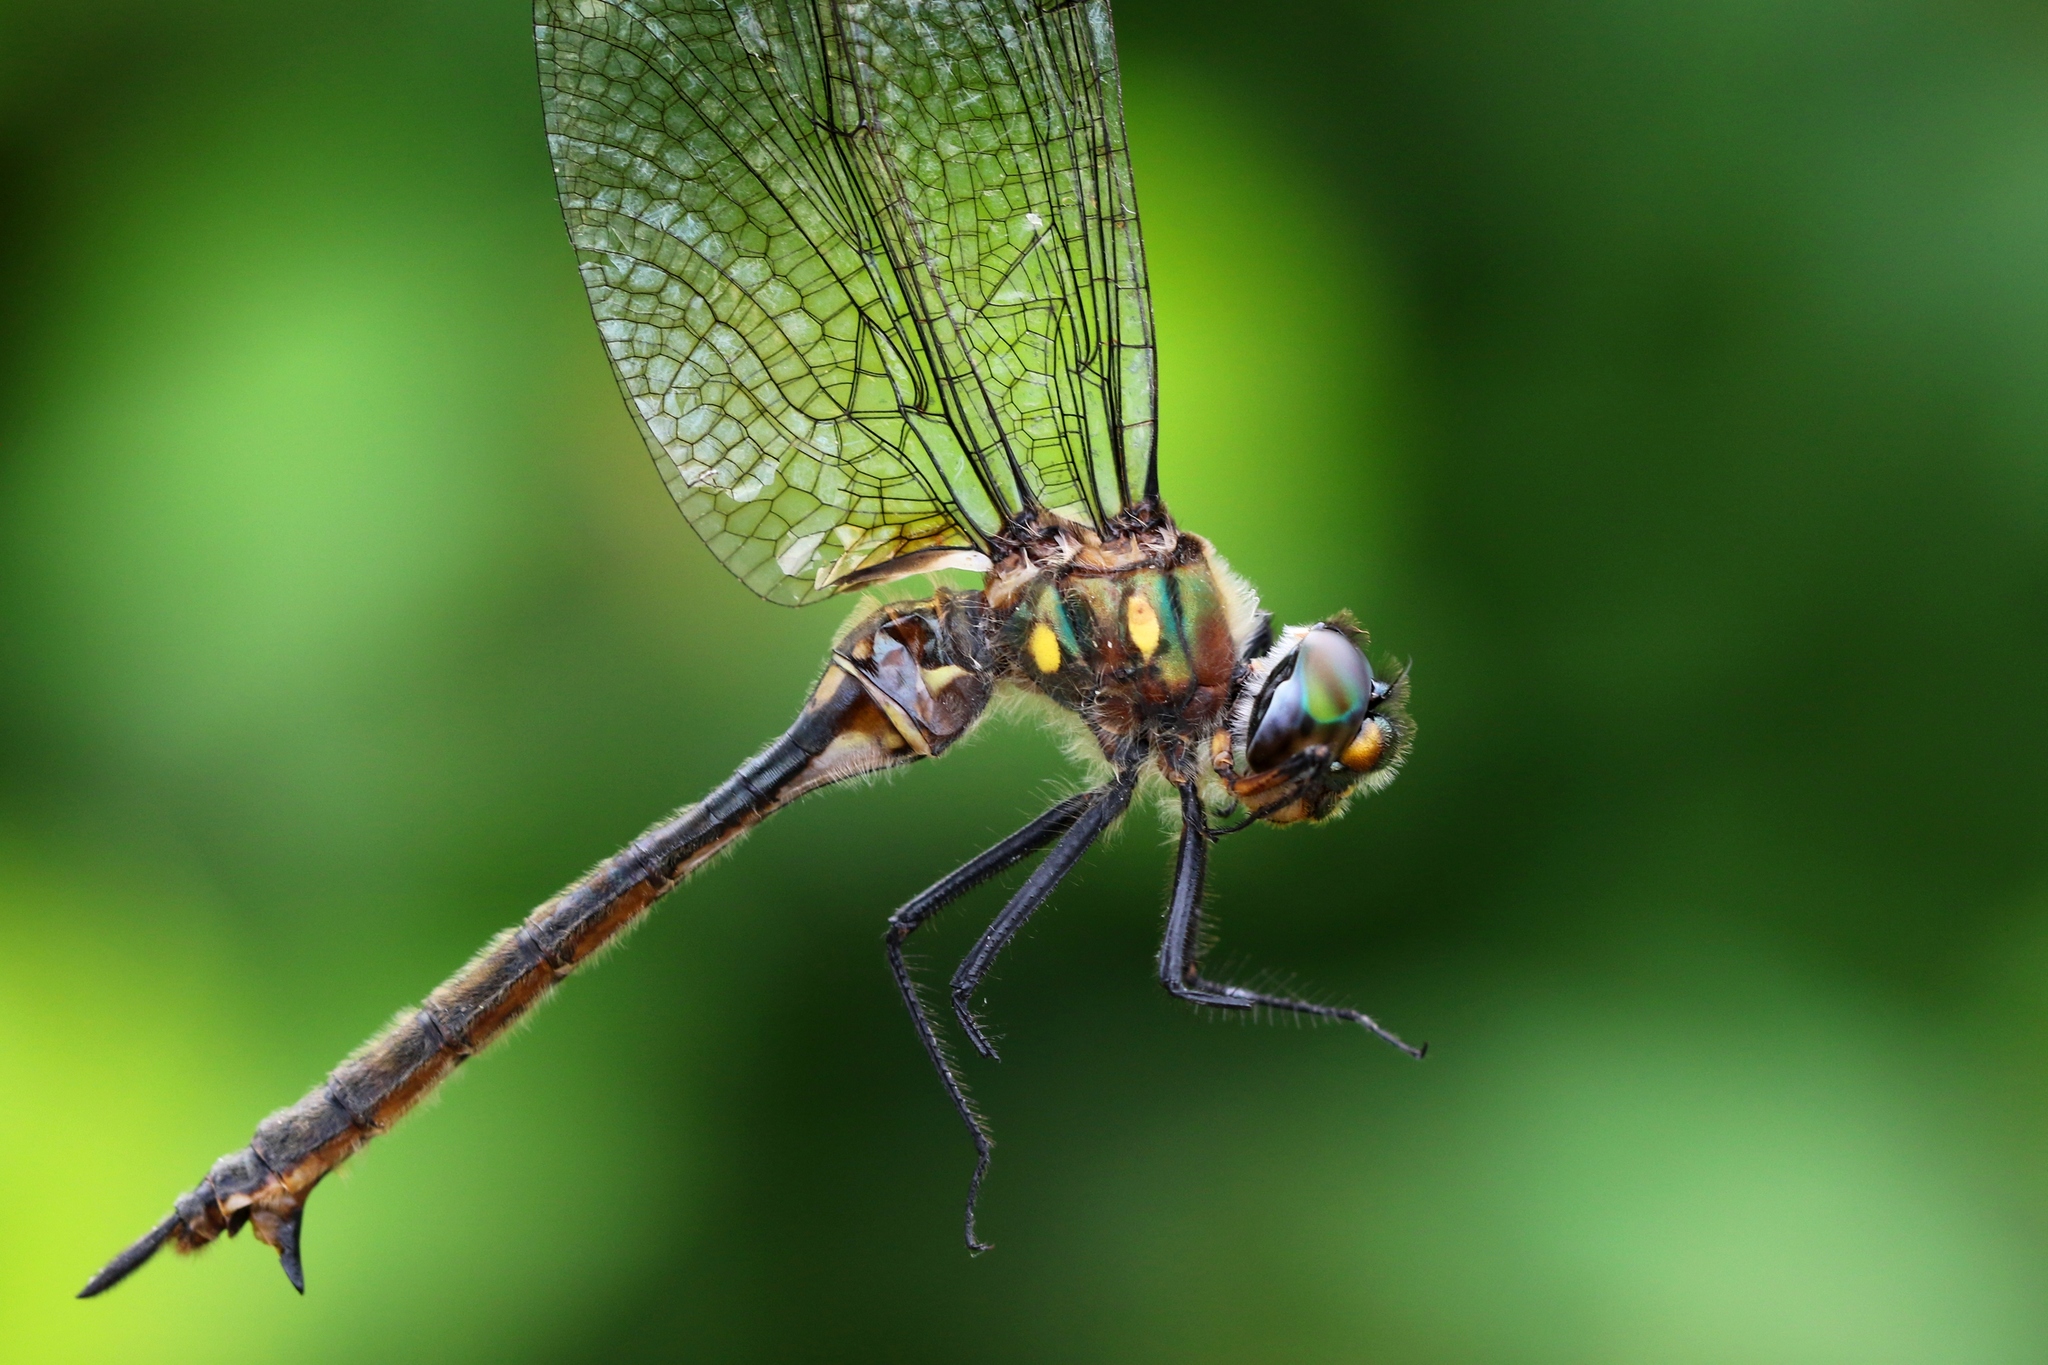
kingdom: Animalia
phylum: Arthropoda
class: Insecta
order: Odonata
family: Corduliidae
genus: Somatochlora
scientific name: Somatochlora minor
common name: Ocellated emerald
